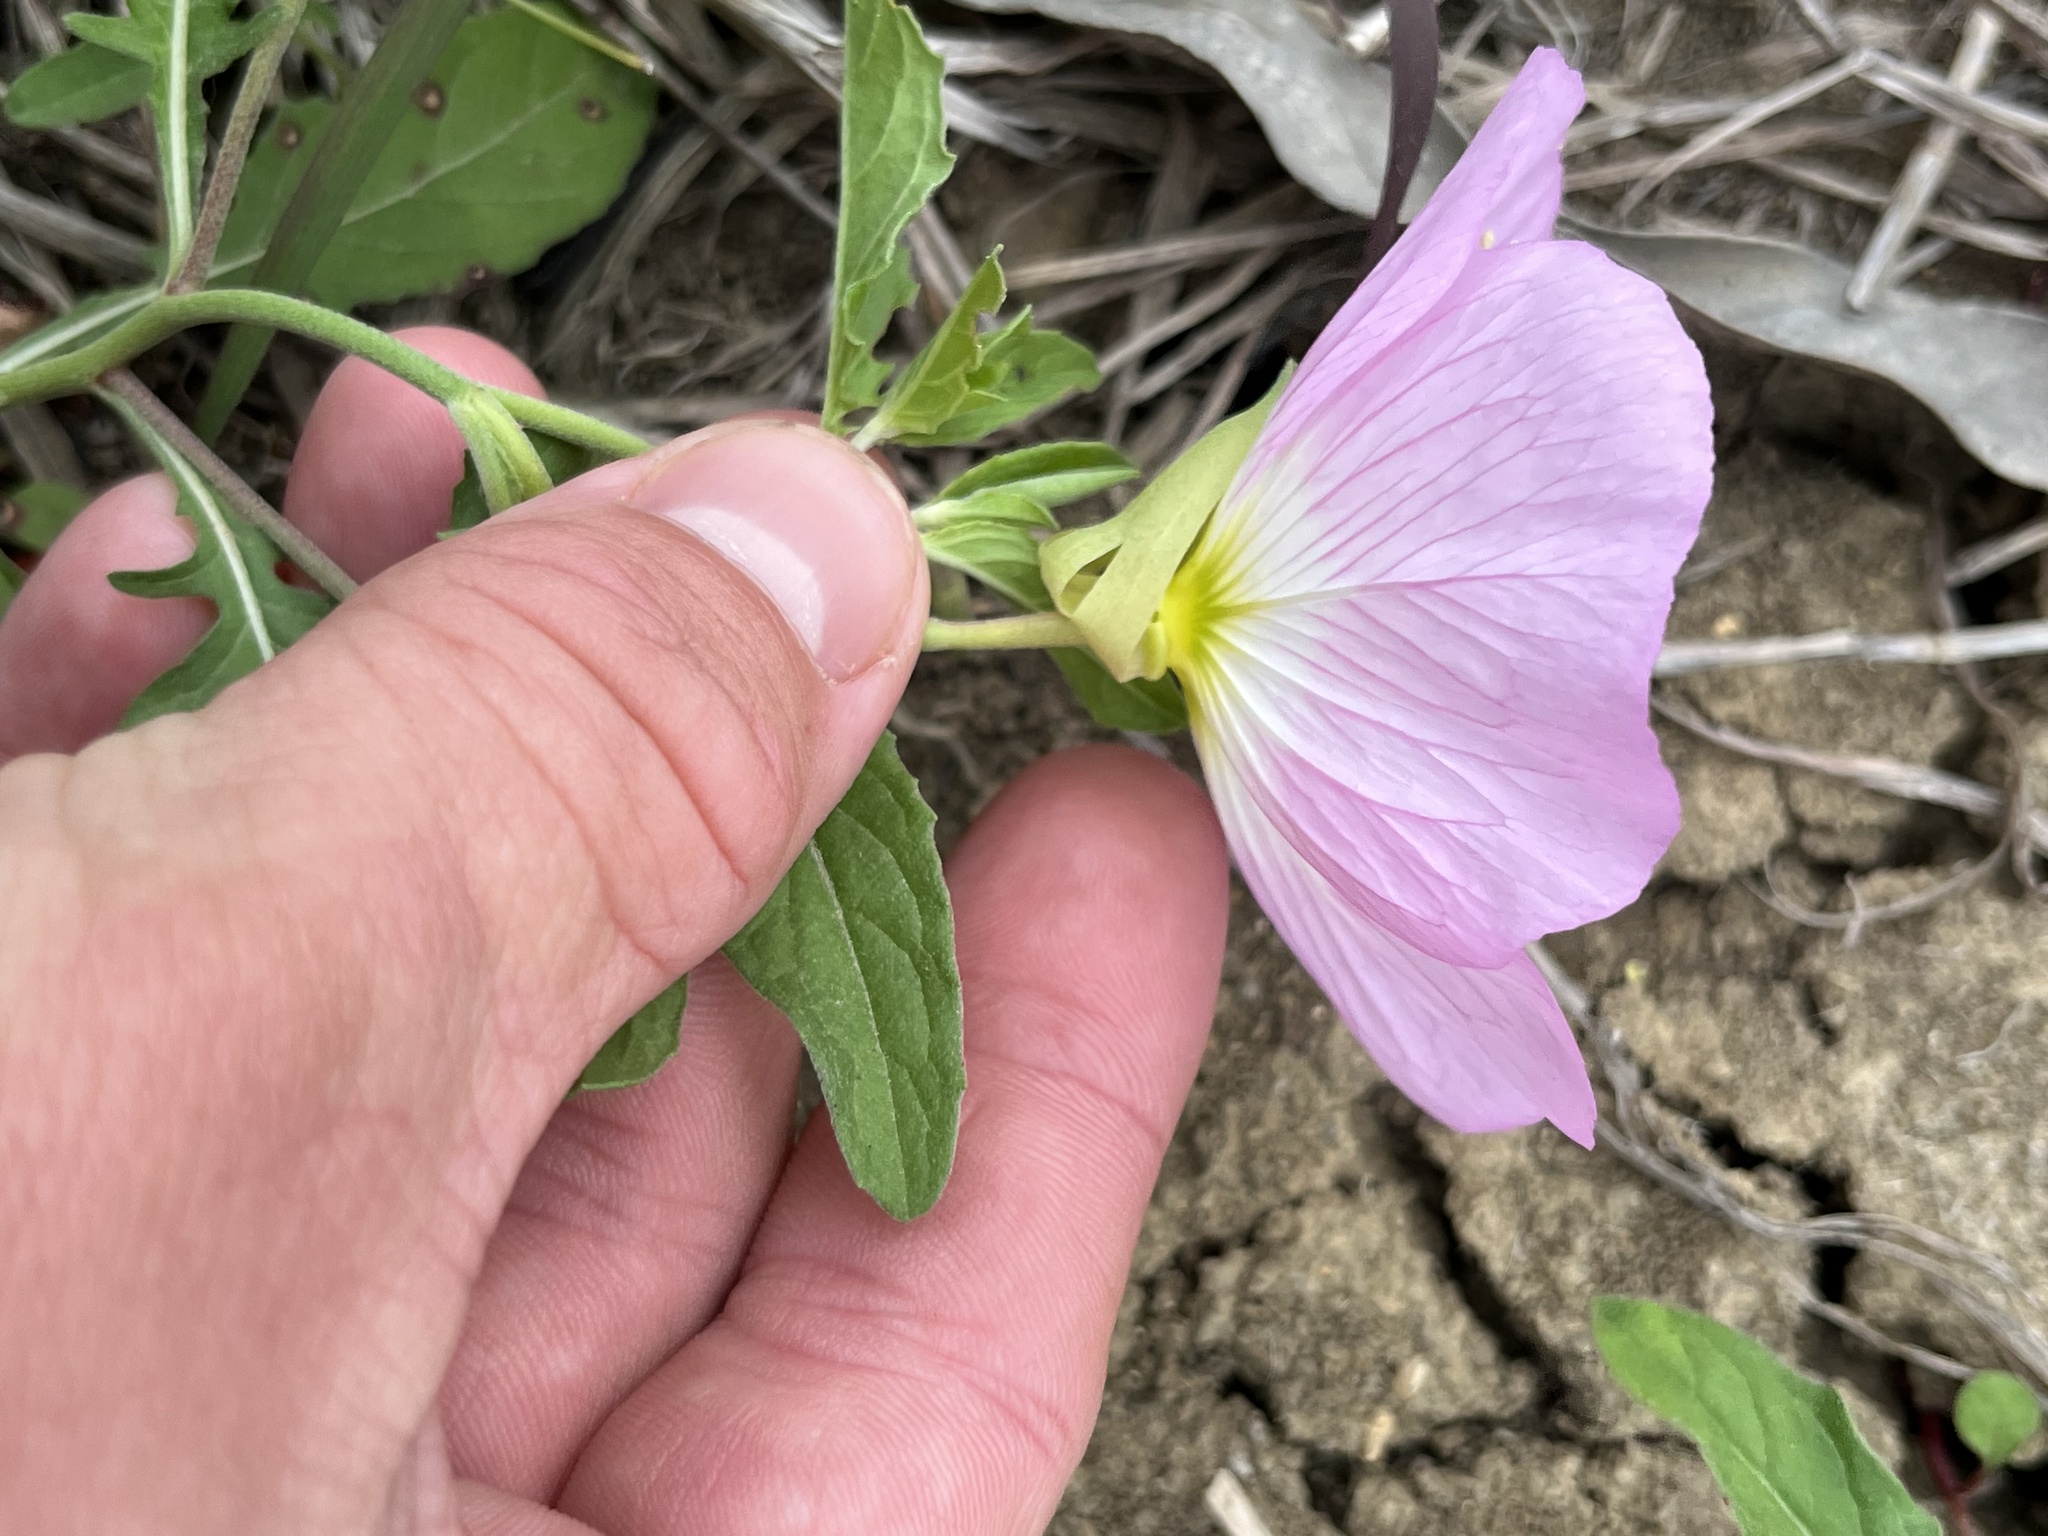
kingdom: Plantae
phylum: Tracheophyta
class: Magnoliopsida
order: Myrtales
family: Onagraceae
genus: Oenothera
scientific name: Oenothera speciosa
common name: White evening-primrose
